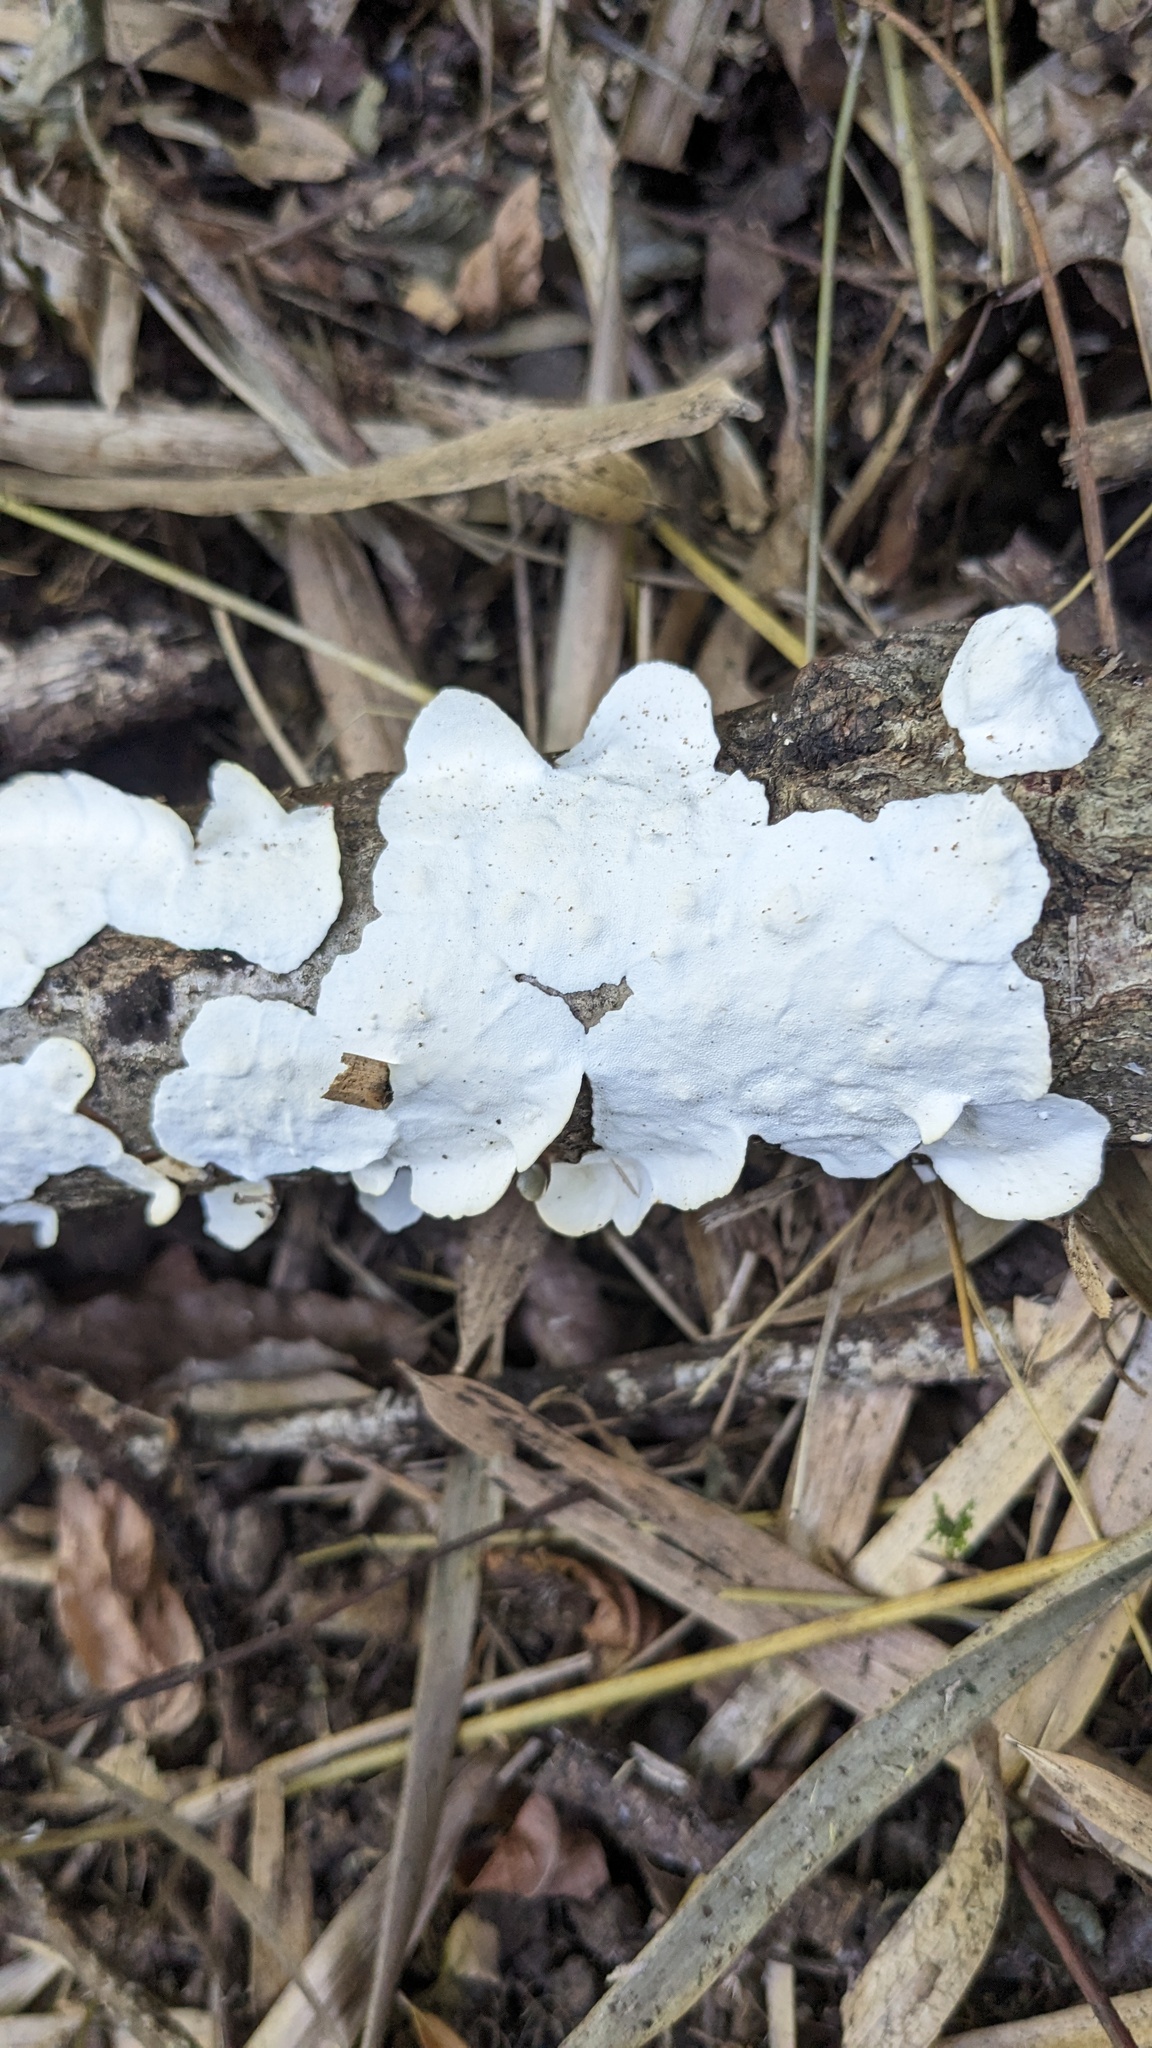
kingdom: Fungi
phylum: Basidiomycota
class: Agaricomycetes
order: Polyporales
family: Polyporaceae
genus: Trametes
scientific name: Trametes versicolor
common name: Turkeytail
